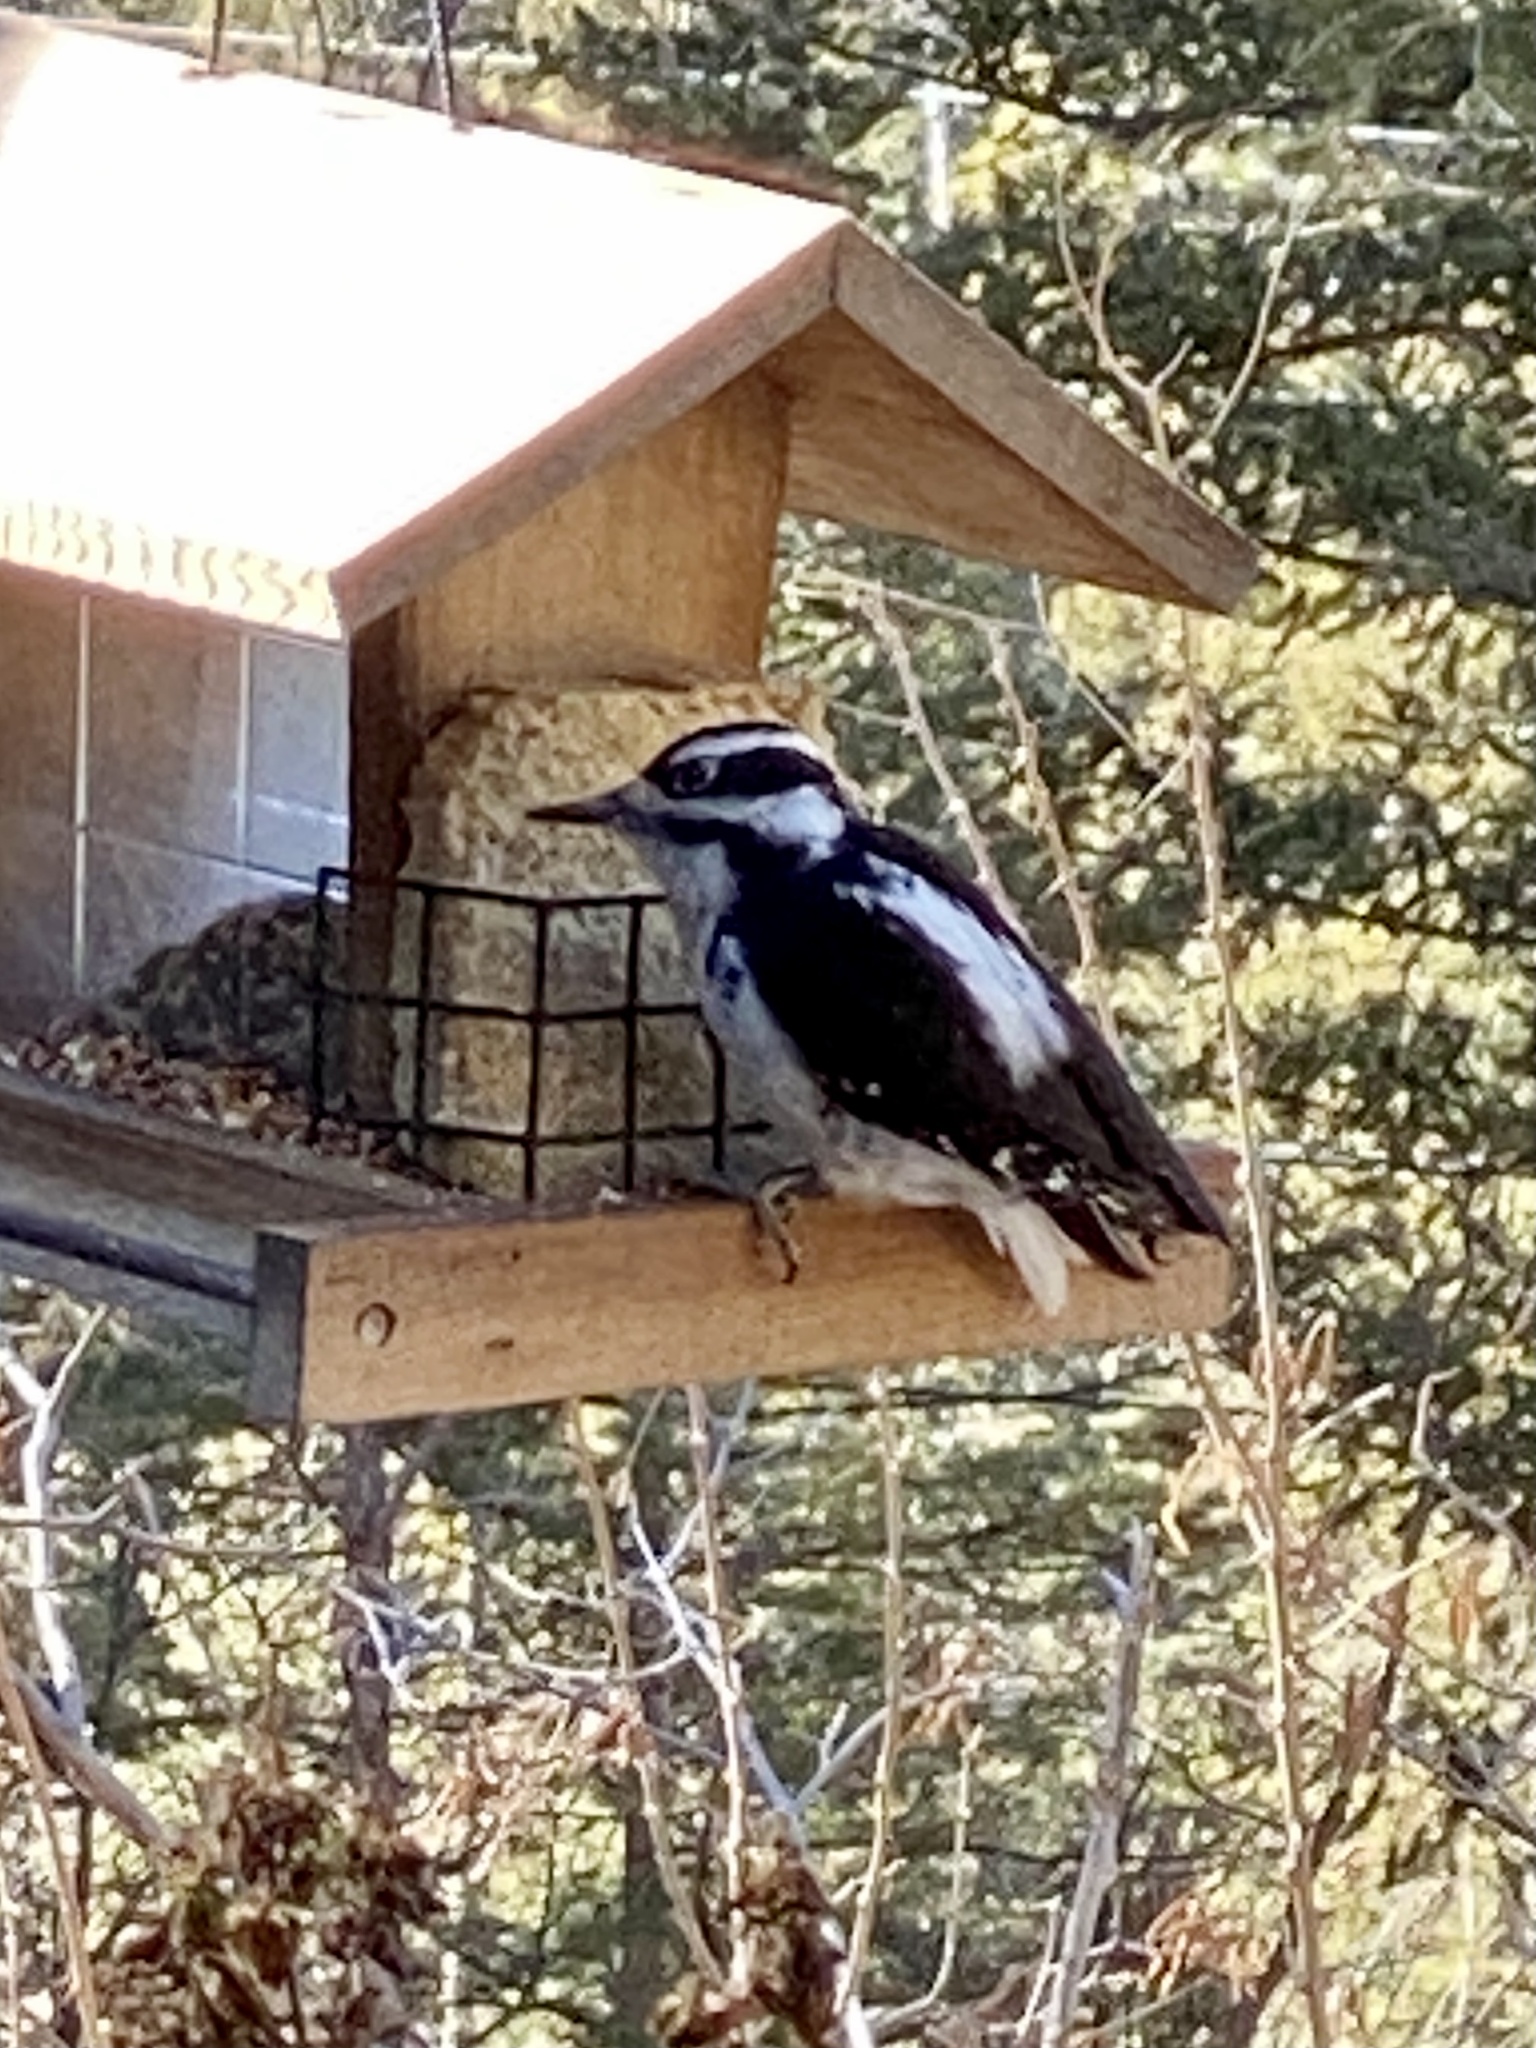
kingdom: Animalia
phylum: Chordata
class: Aves
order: Piciformes
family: Picidae
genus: Leuconotopicus
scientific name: Leuconotopicus villosus
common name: Hairy woodpecker
